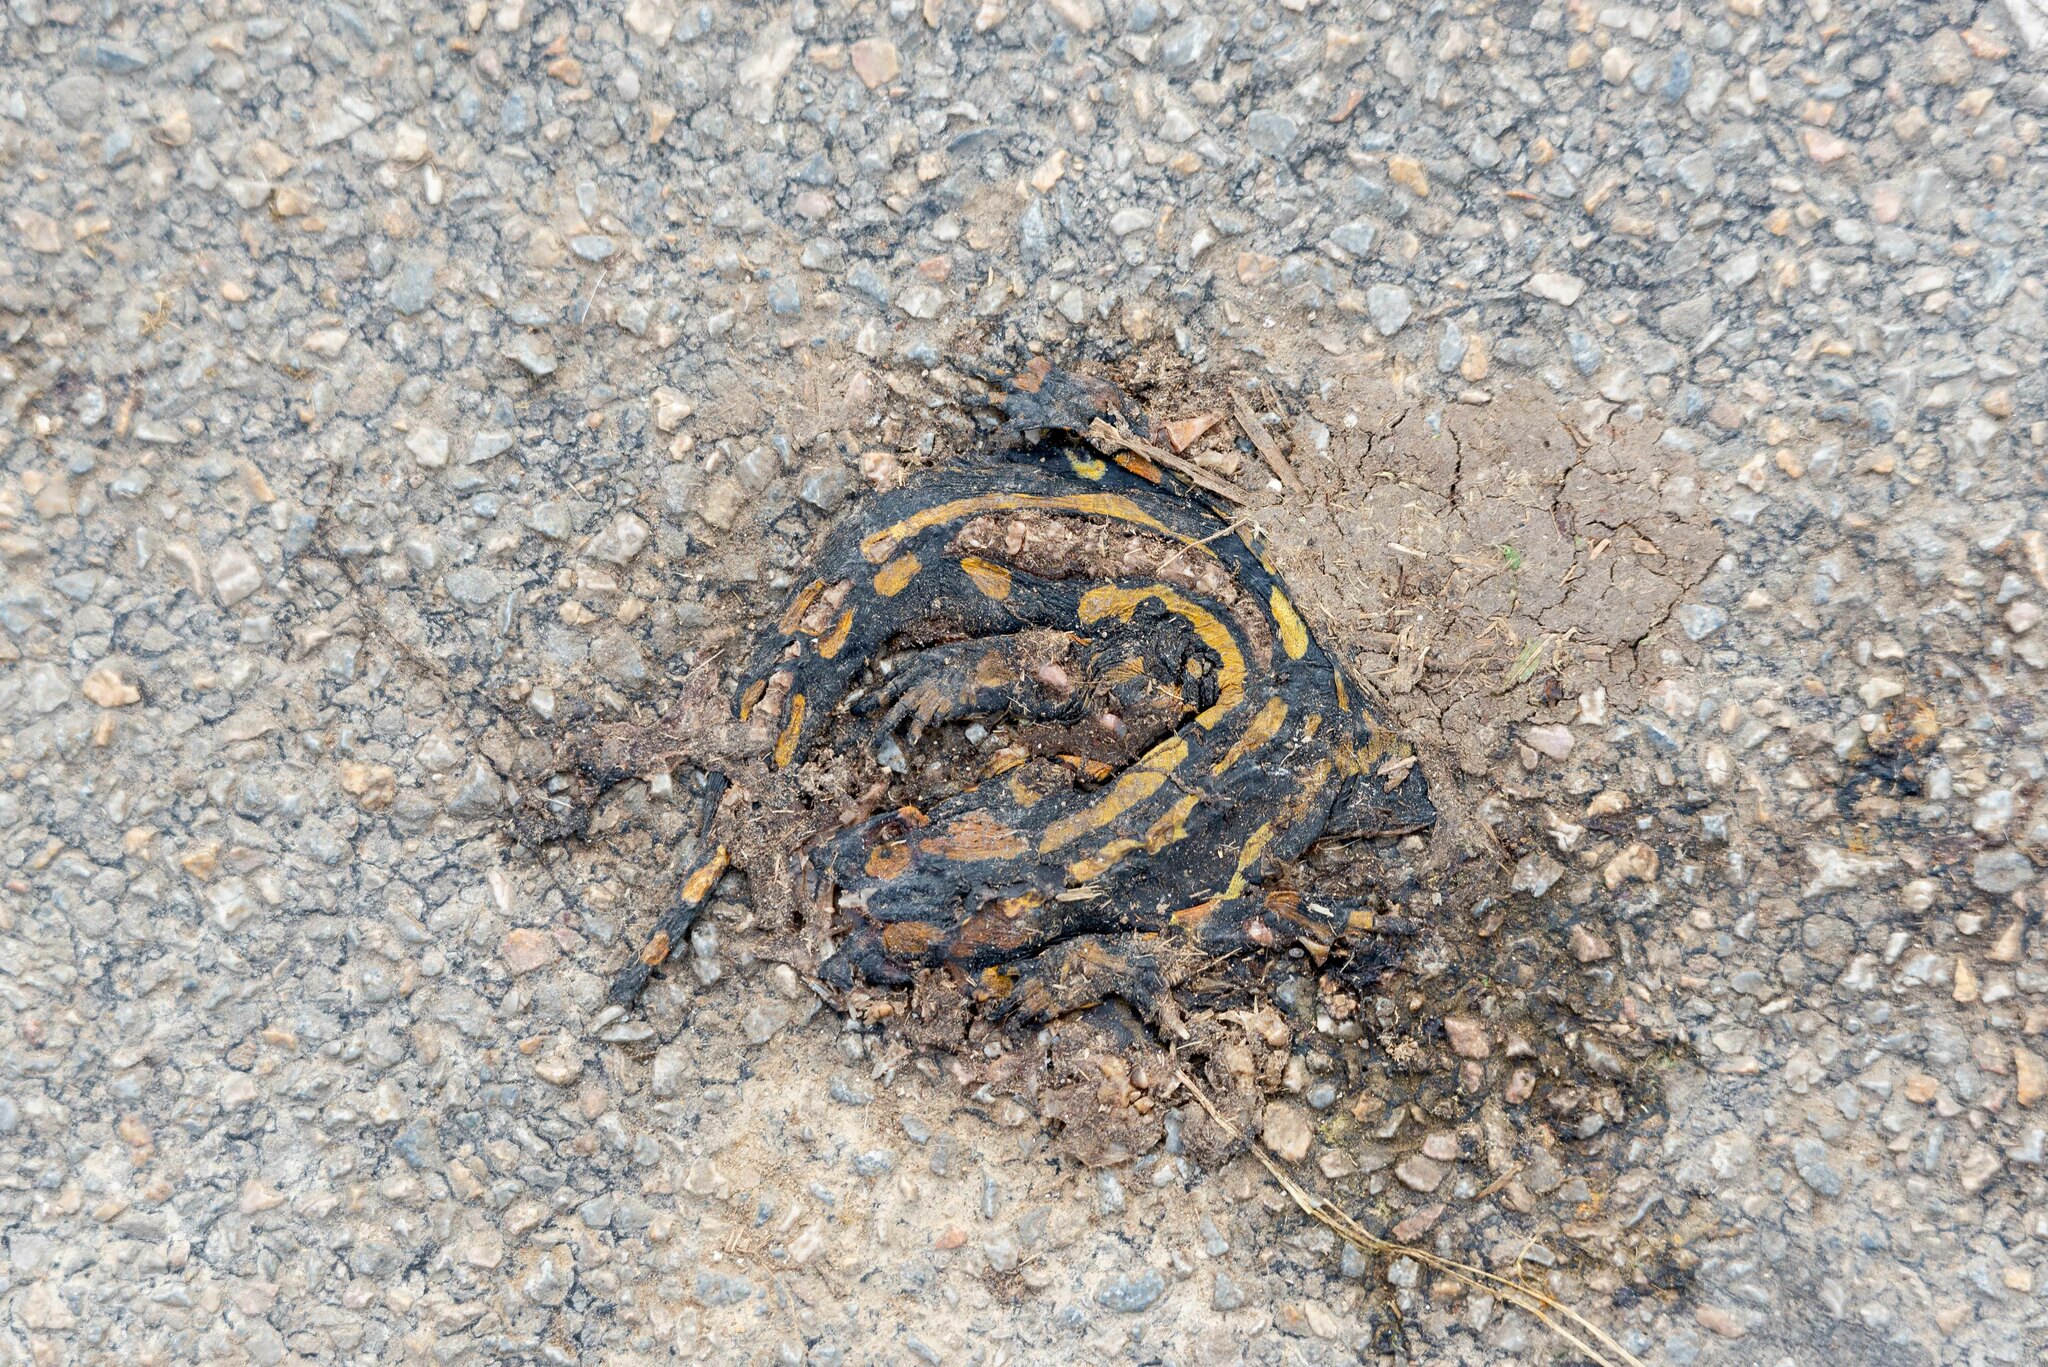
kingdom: Animalia
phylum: Chordata
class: Amphibia
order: Caudata
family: Salamandridae
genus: Salamandra
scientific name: Salamandra salamandra
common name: Fire salamander
